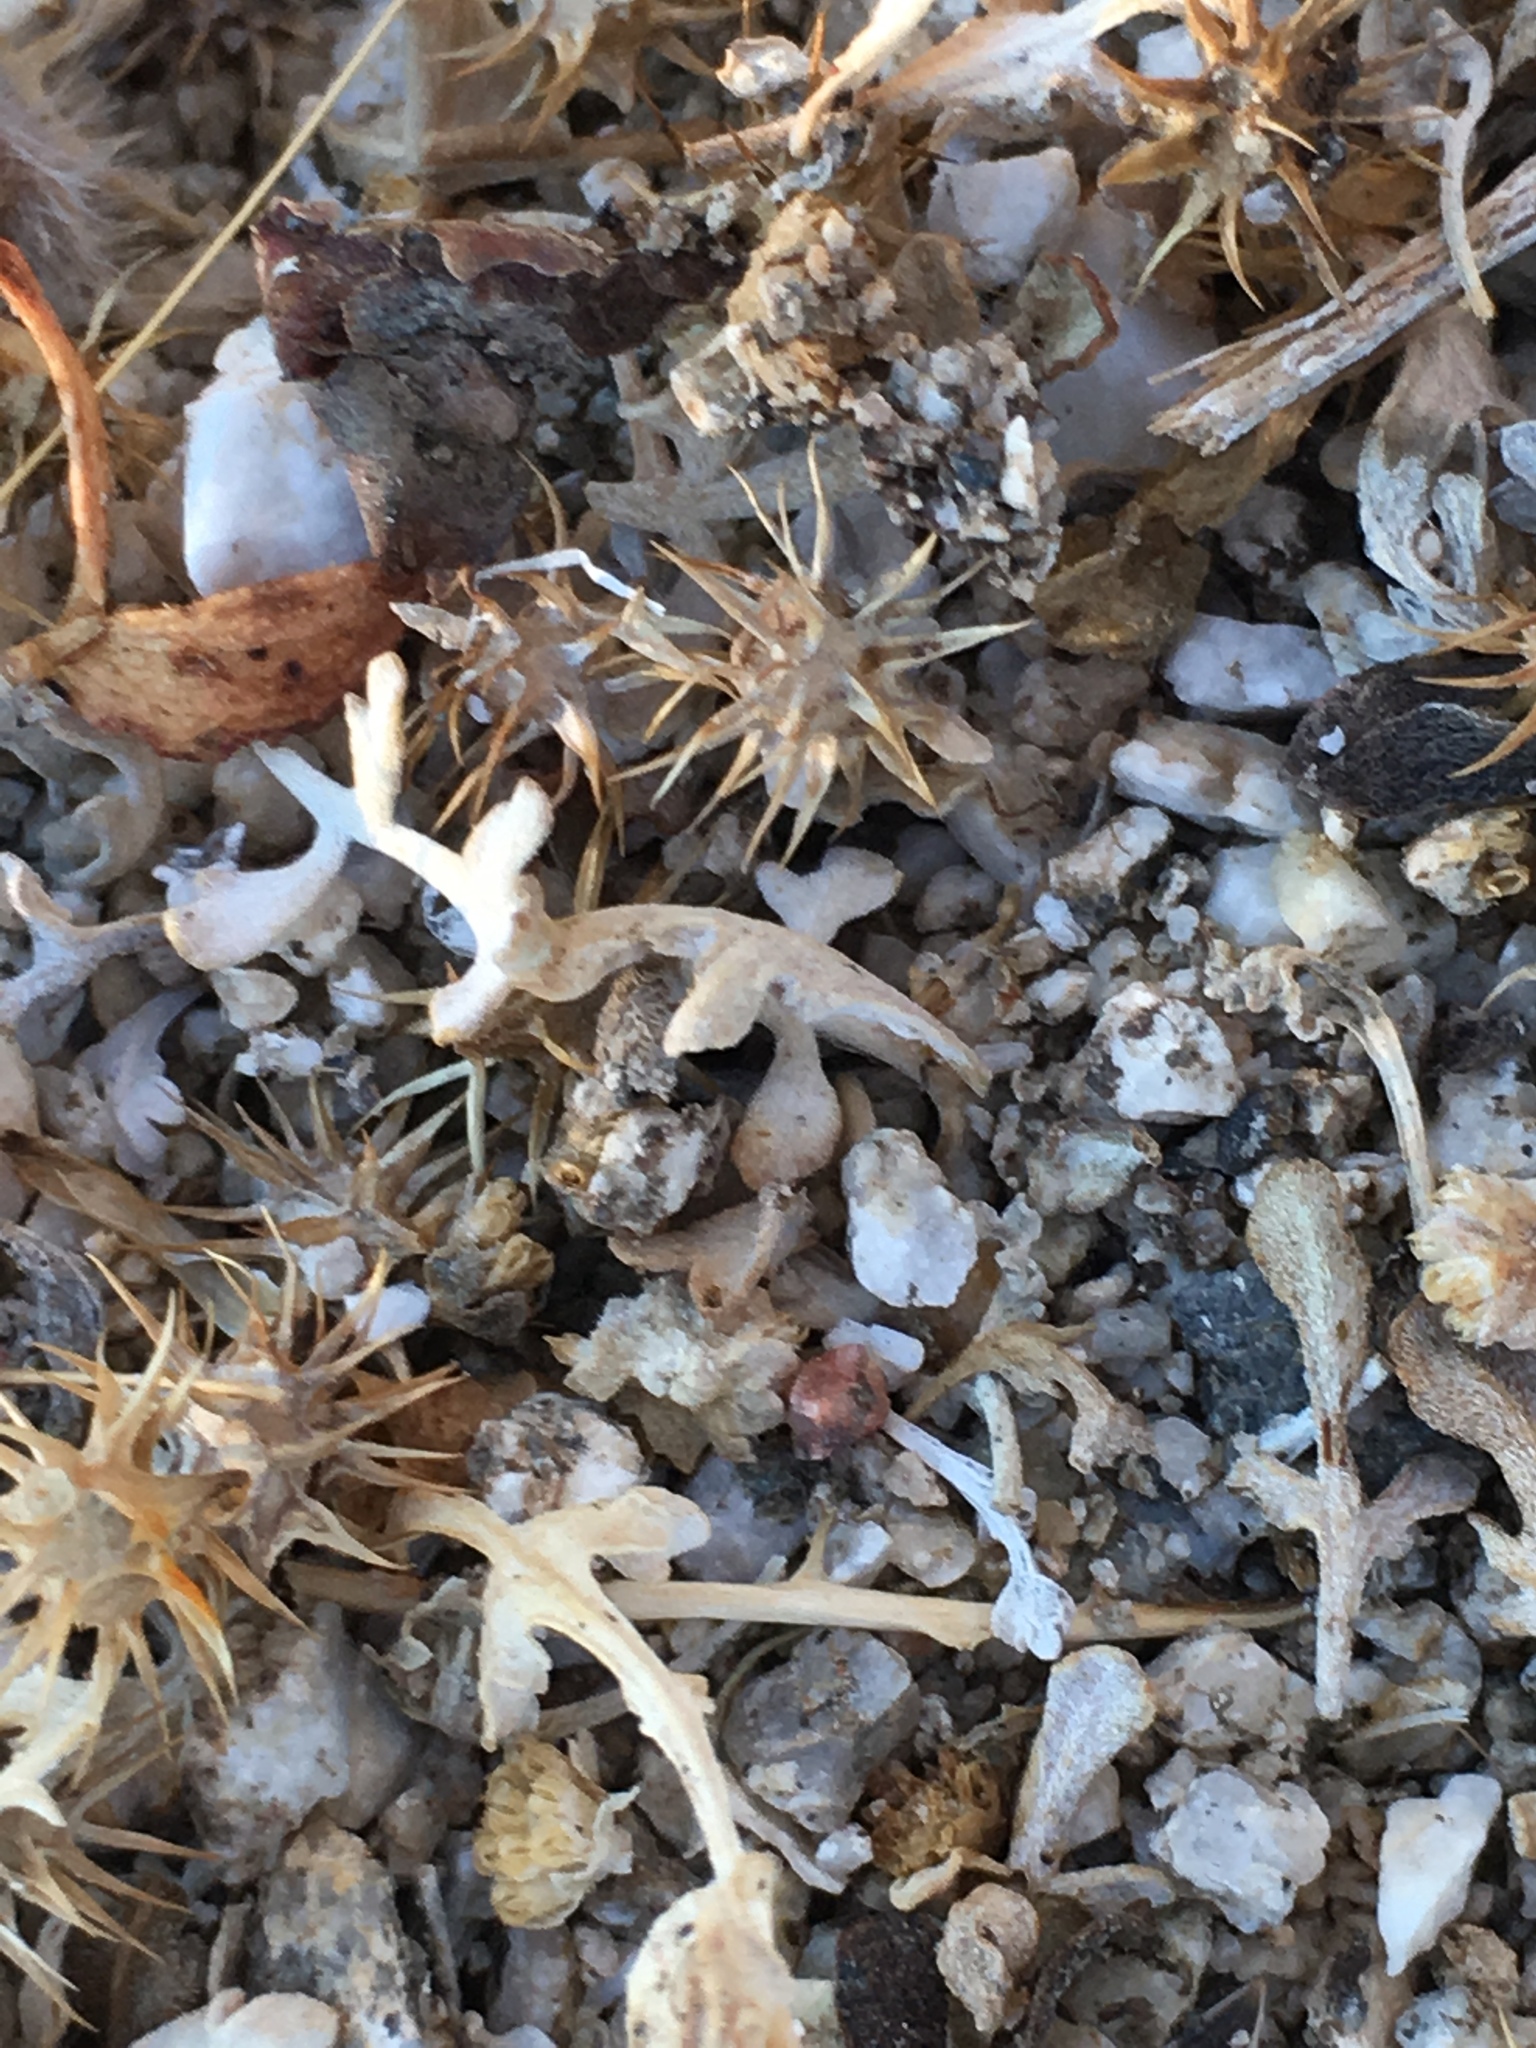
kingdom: Plantae
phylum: Tracheophyta
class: Magnoliopsida
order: Asterales
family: Asteraceae
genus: Ambrosia
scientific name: Ambrosia dumosa
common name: Bur-sage
